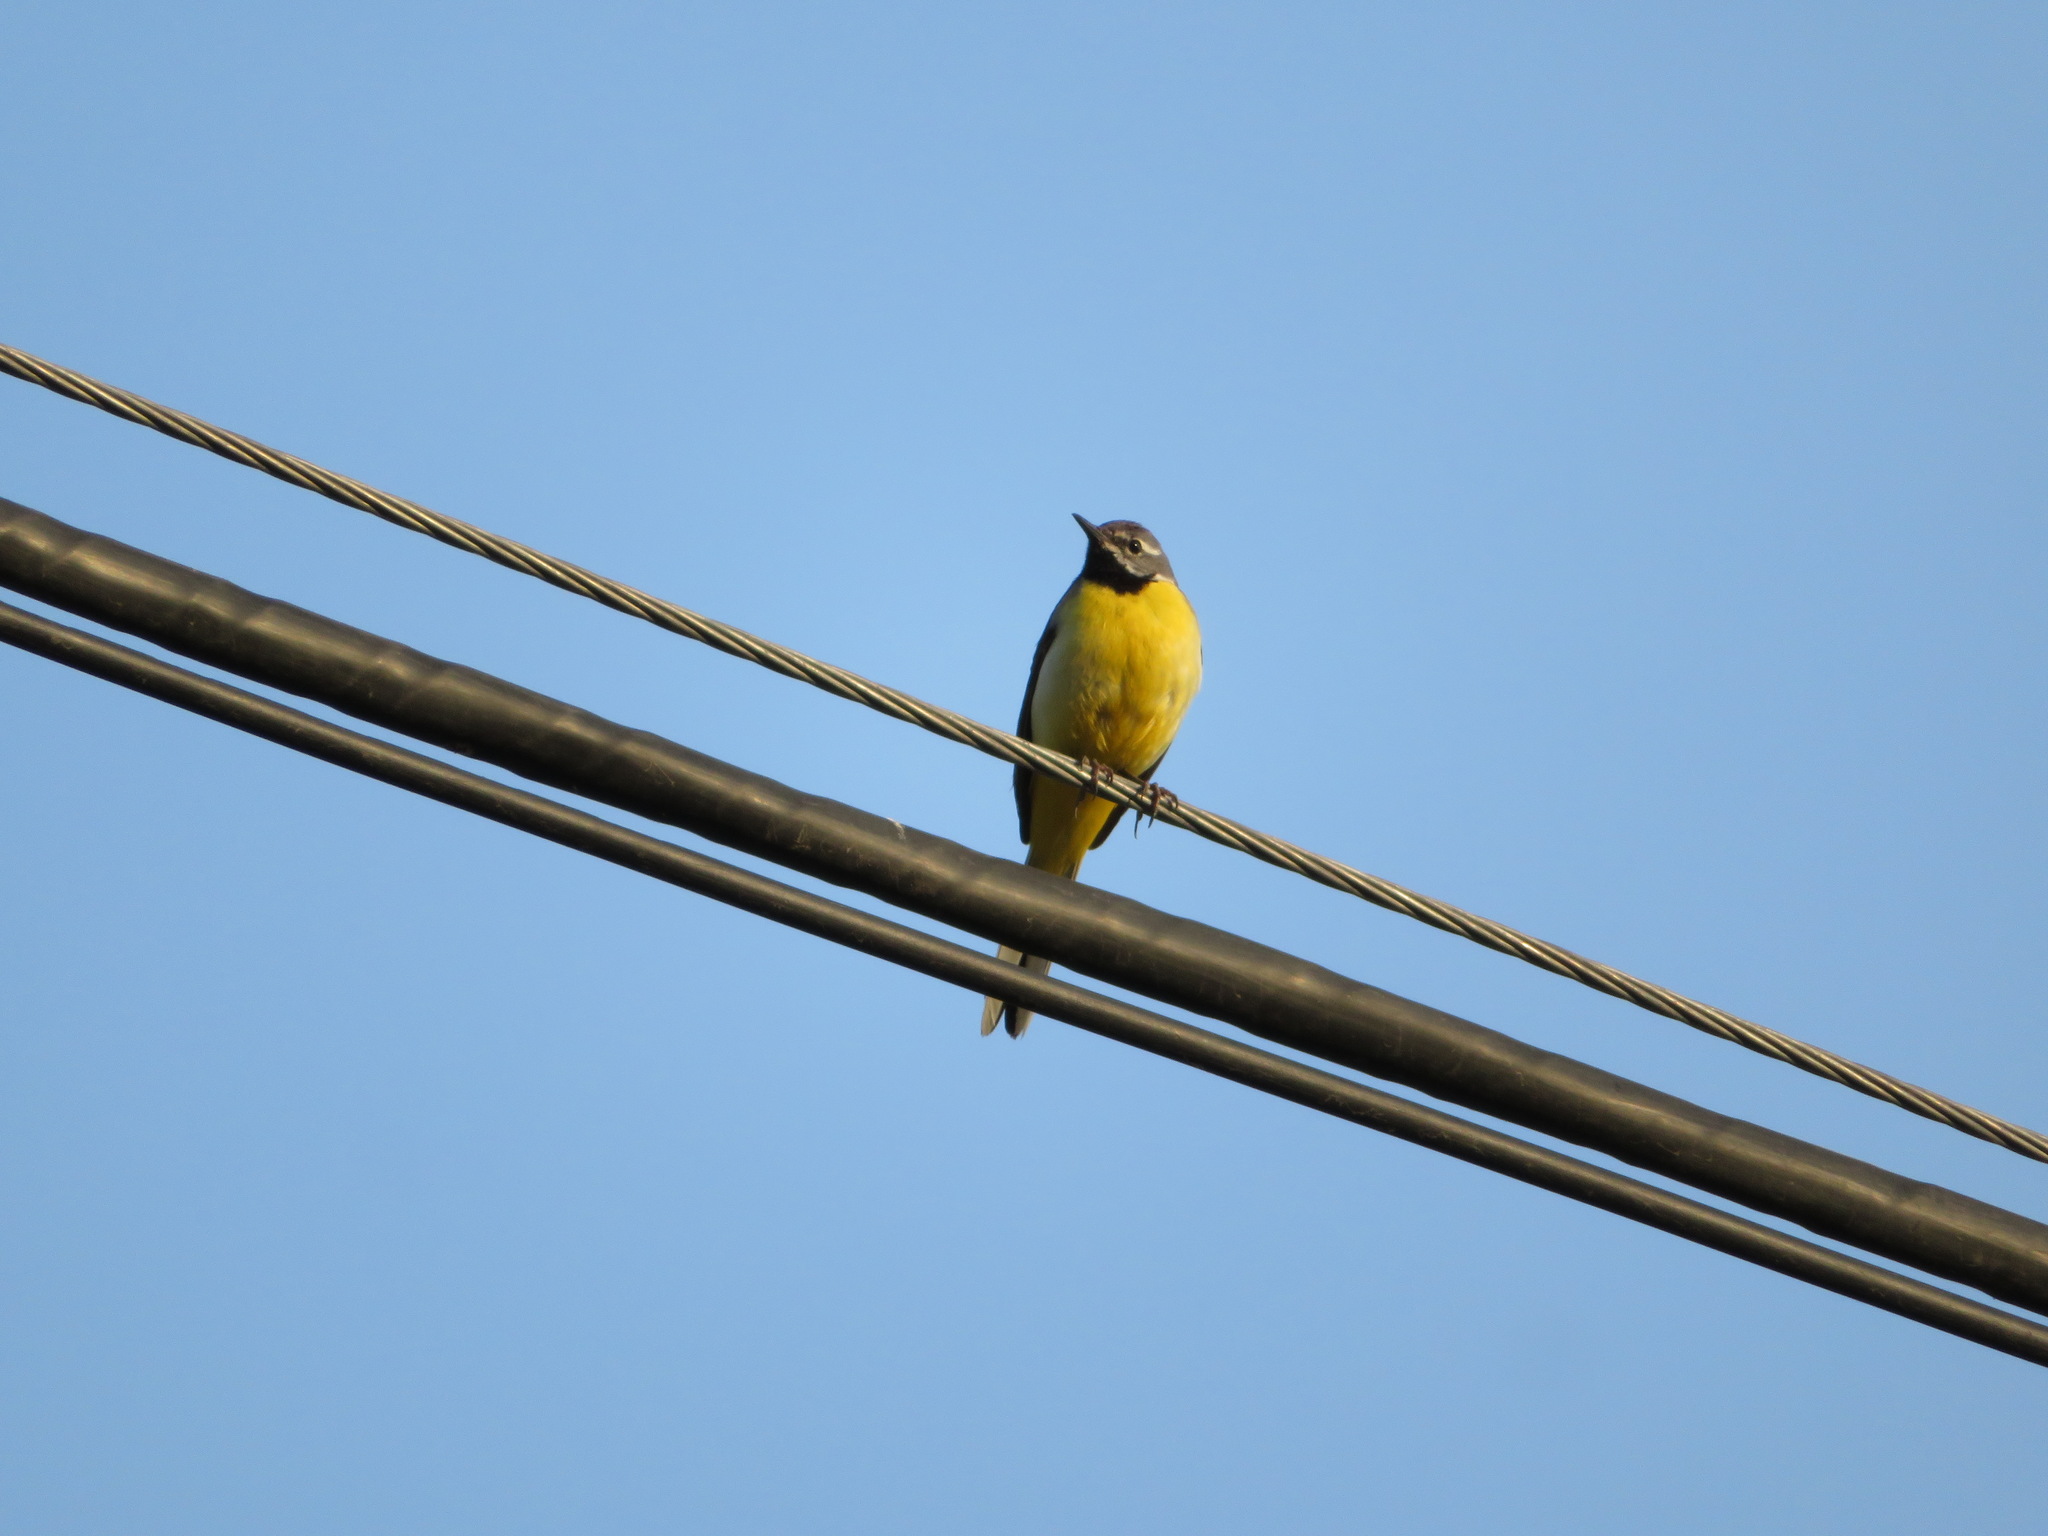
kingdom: Animalia
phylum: Chordata
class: Aves
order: Passeriformes
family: Motacillidae
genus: Motacilla
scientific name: Motacilla cinerea
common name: Grey wagtail
